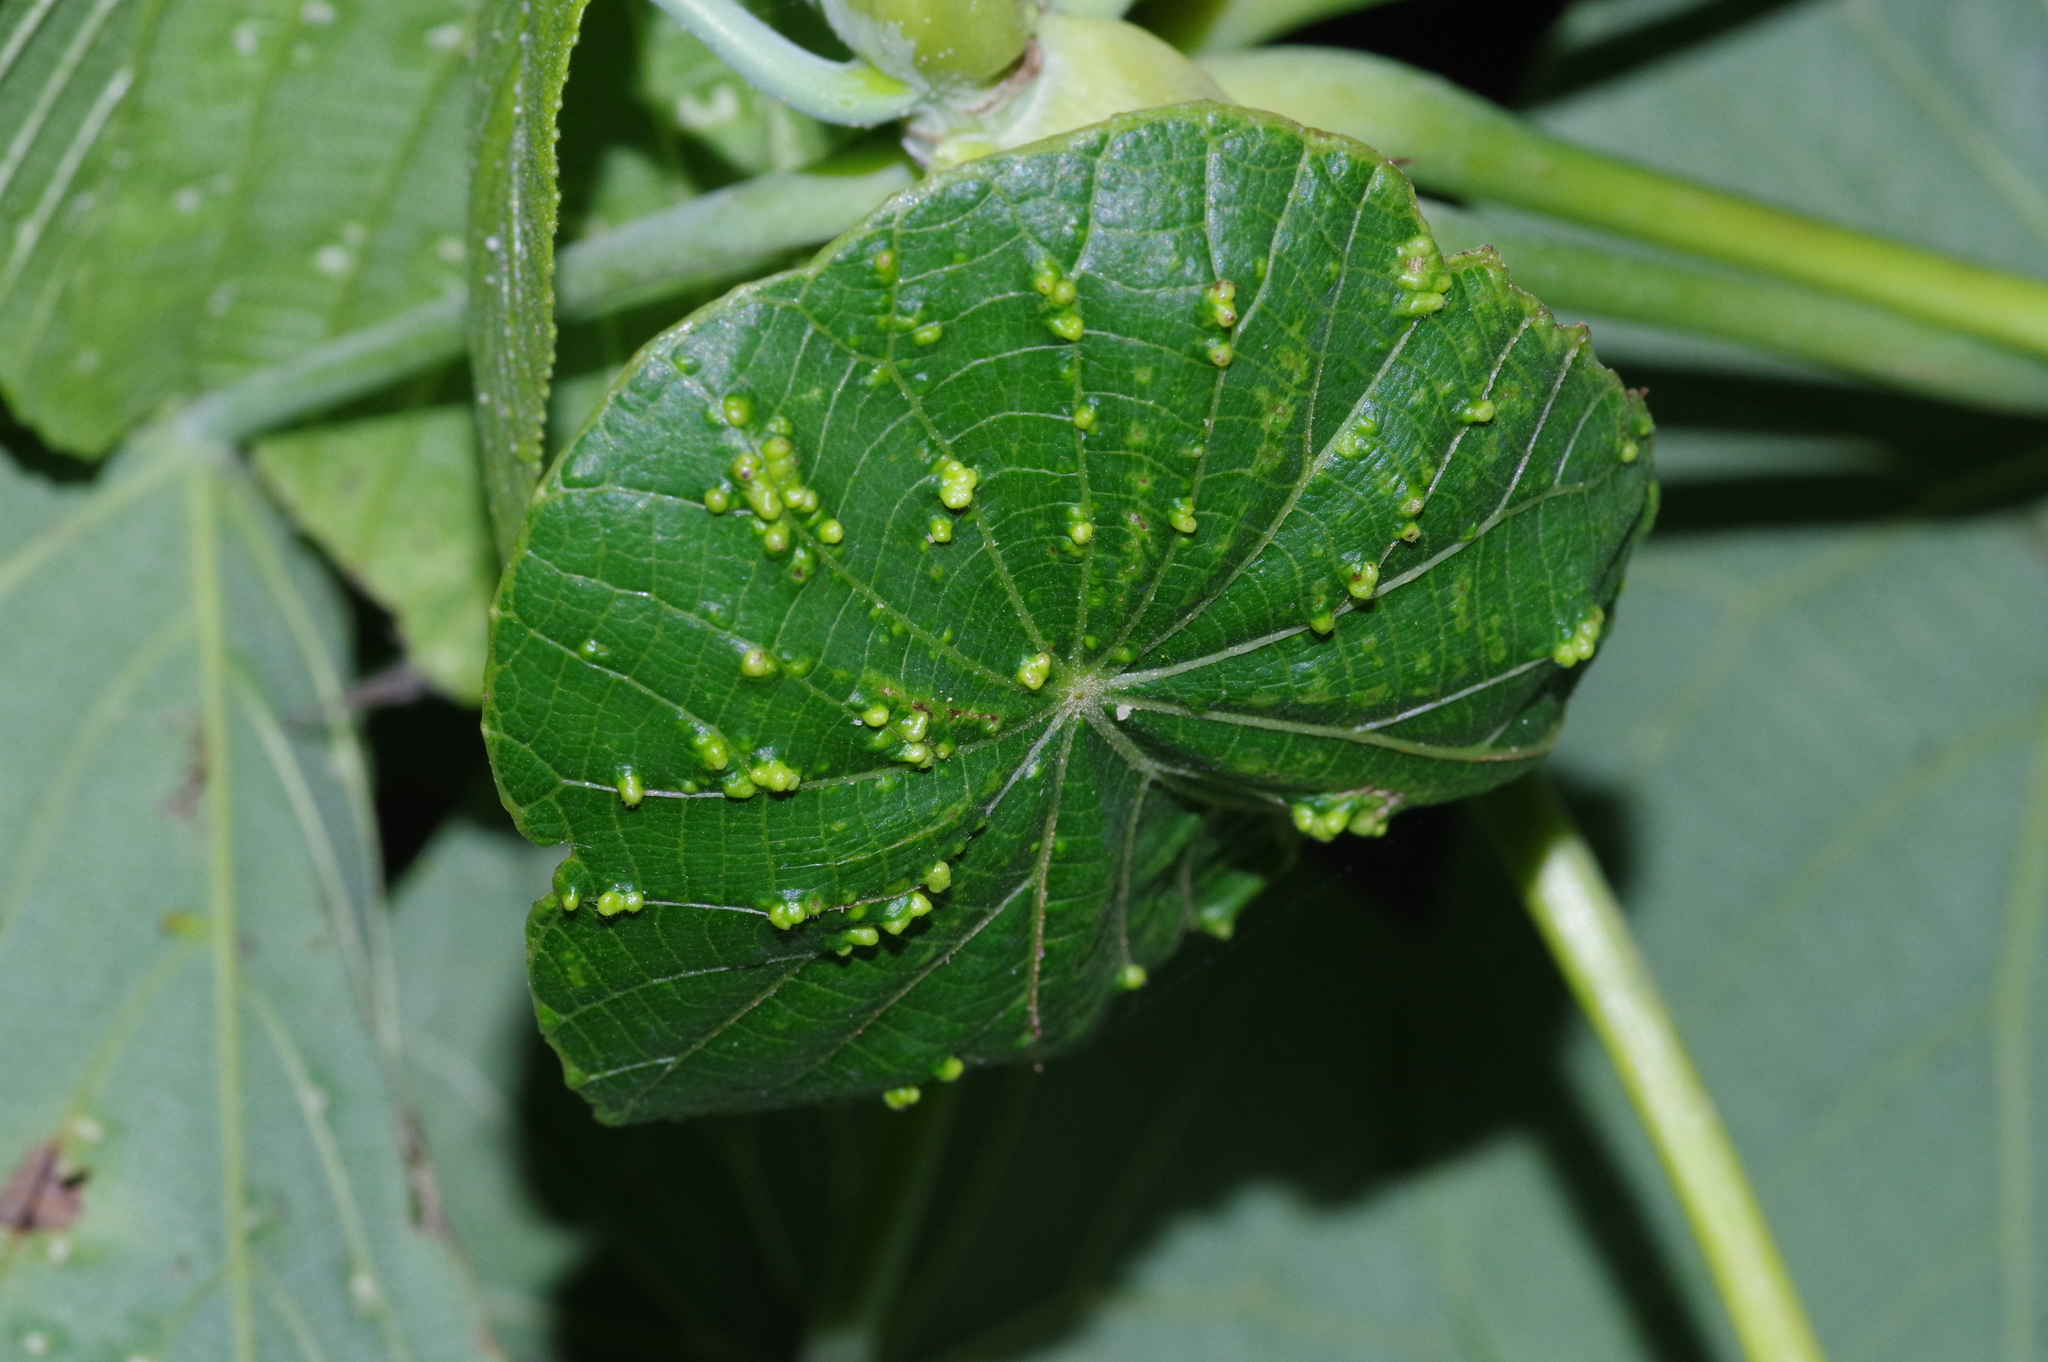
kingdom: Animalia
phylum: Arthropoda
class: Arachnida
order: Trombidiformes
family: Eriophyidae
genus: Eriophyes
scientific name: Eriophyes
